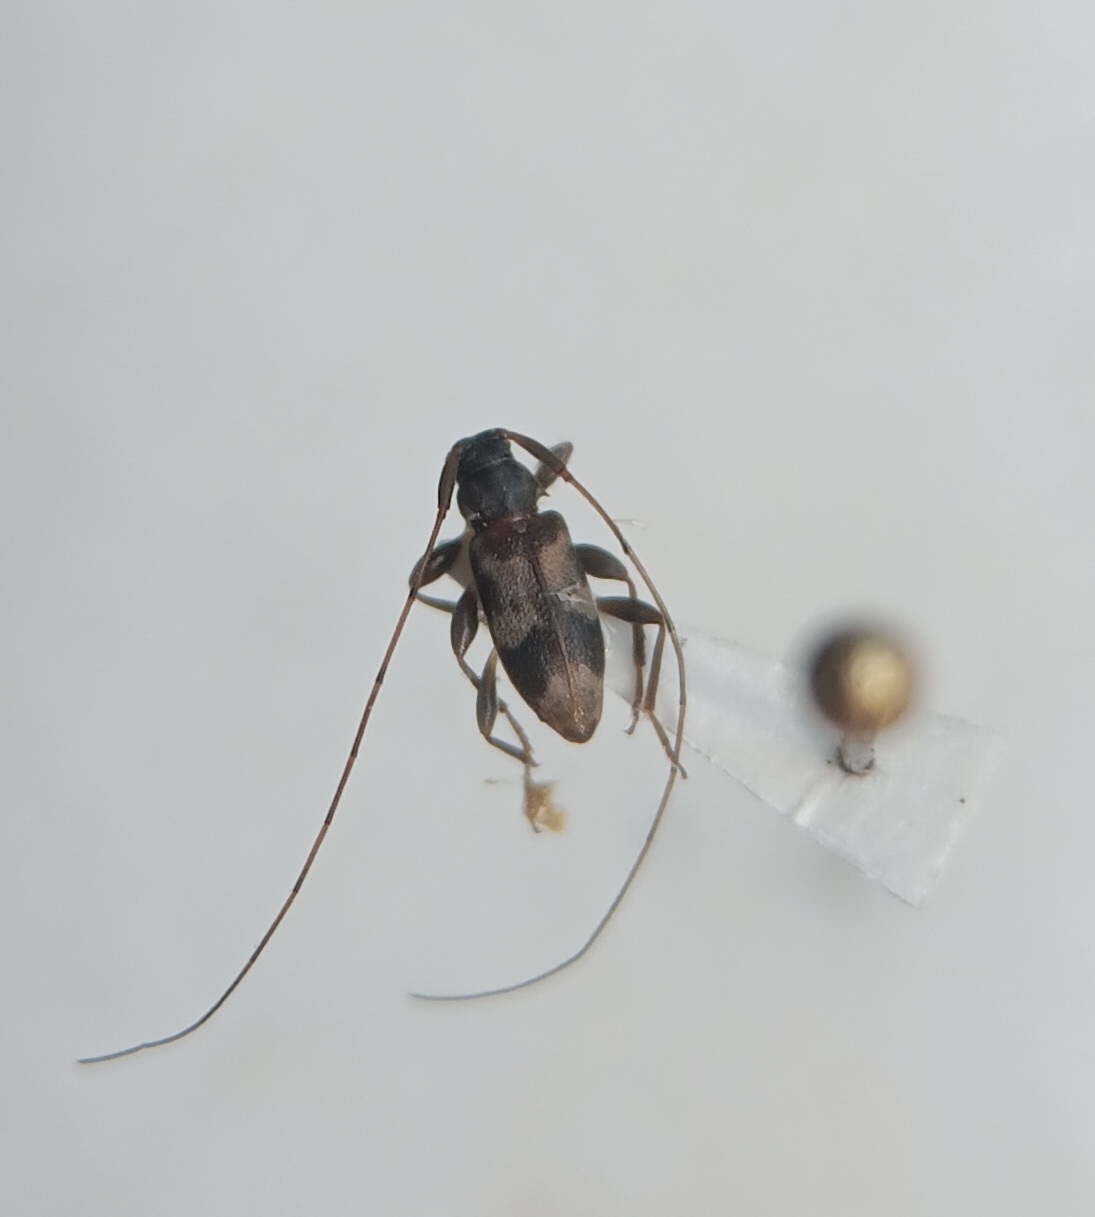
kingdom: Animalia
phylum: Arthropoda
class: Insecta
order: Coleoptera
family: Cerambycidae
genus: Urgleptes
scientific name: Urgleptes querci
